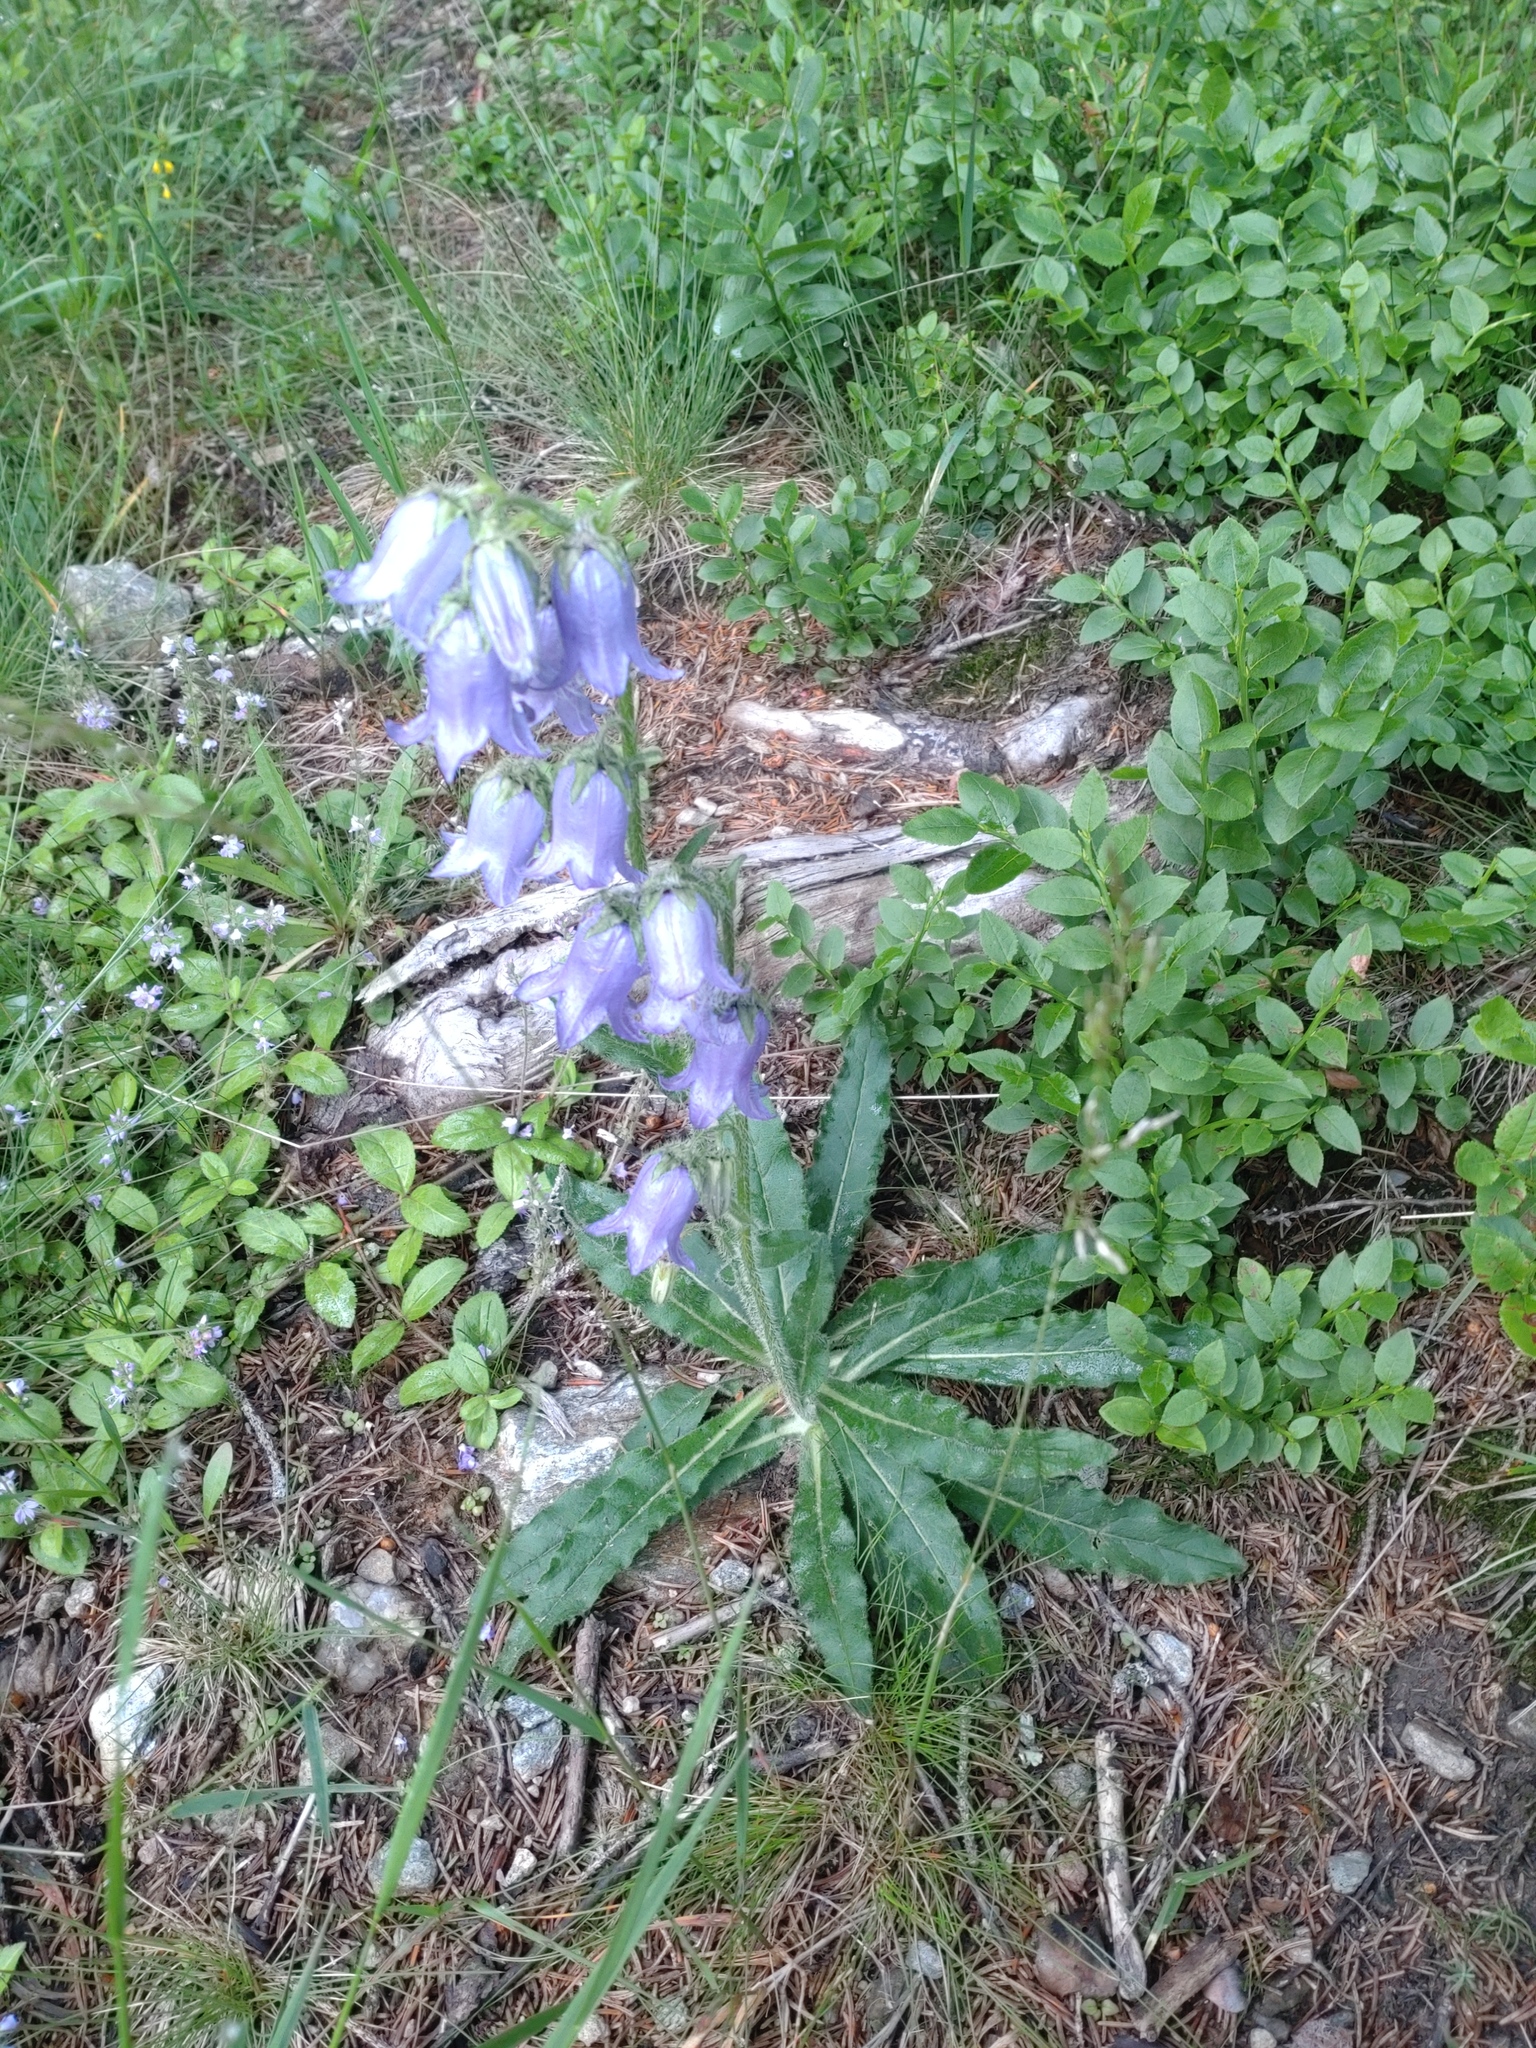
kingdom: Plantae
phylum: Tracheophyta
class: Magnoliopsida
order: Asterales
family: Campanulaceae
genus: Campanula
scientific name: Campanula barbata
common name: Bearded bellflower
